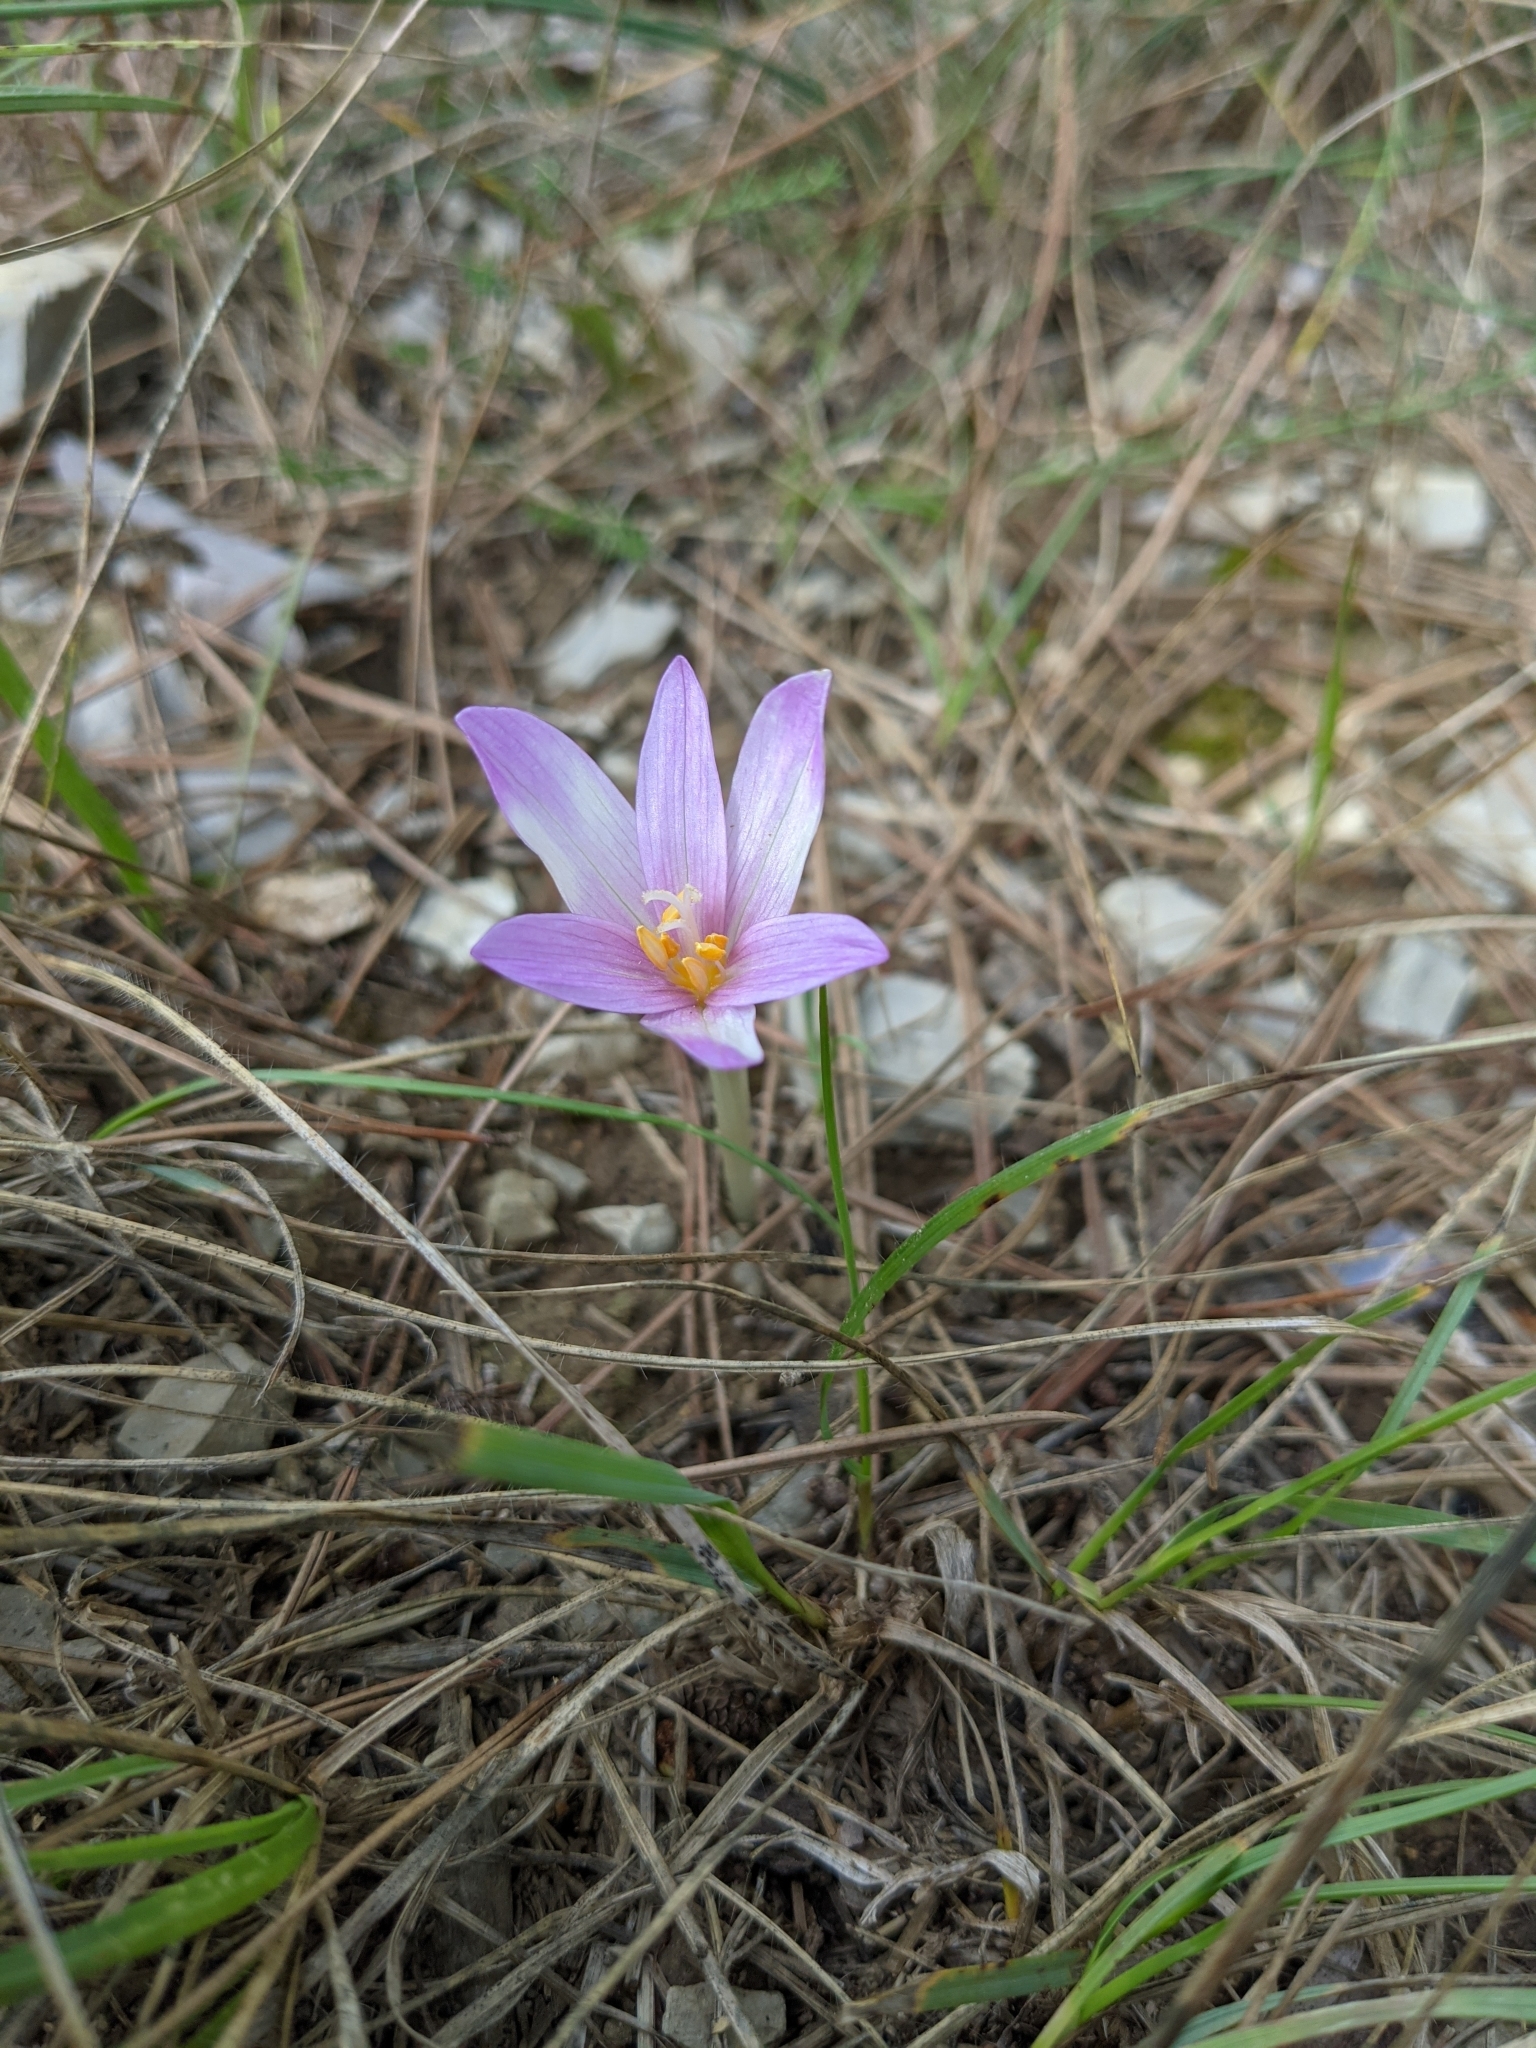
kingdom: Plantae
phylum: Tracheophyta
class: Liliopsida
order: Liliales
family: Colchicaceae
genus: Colchicum
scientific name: Colchicum longifolium
